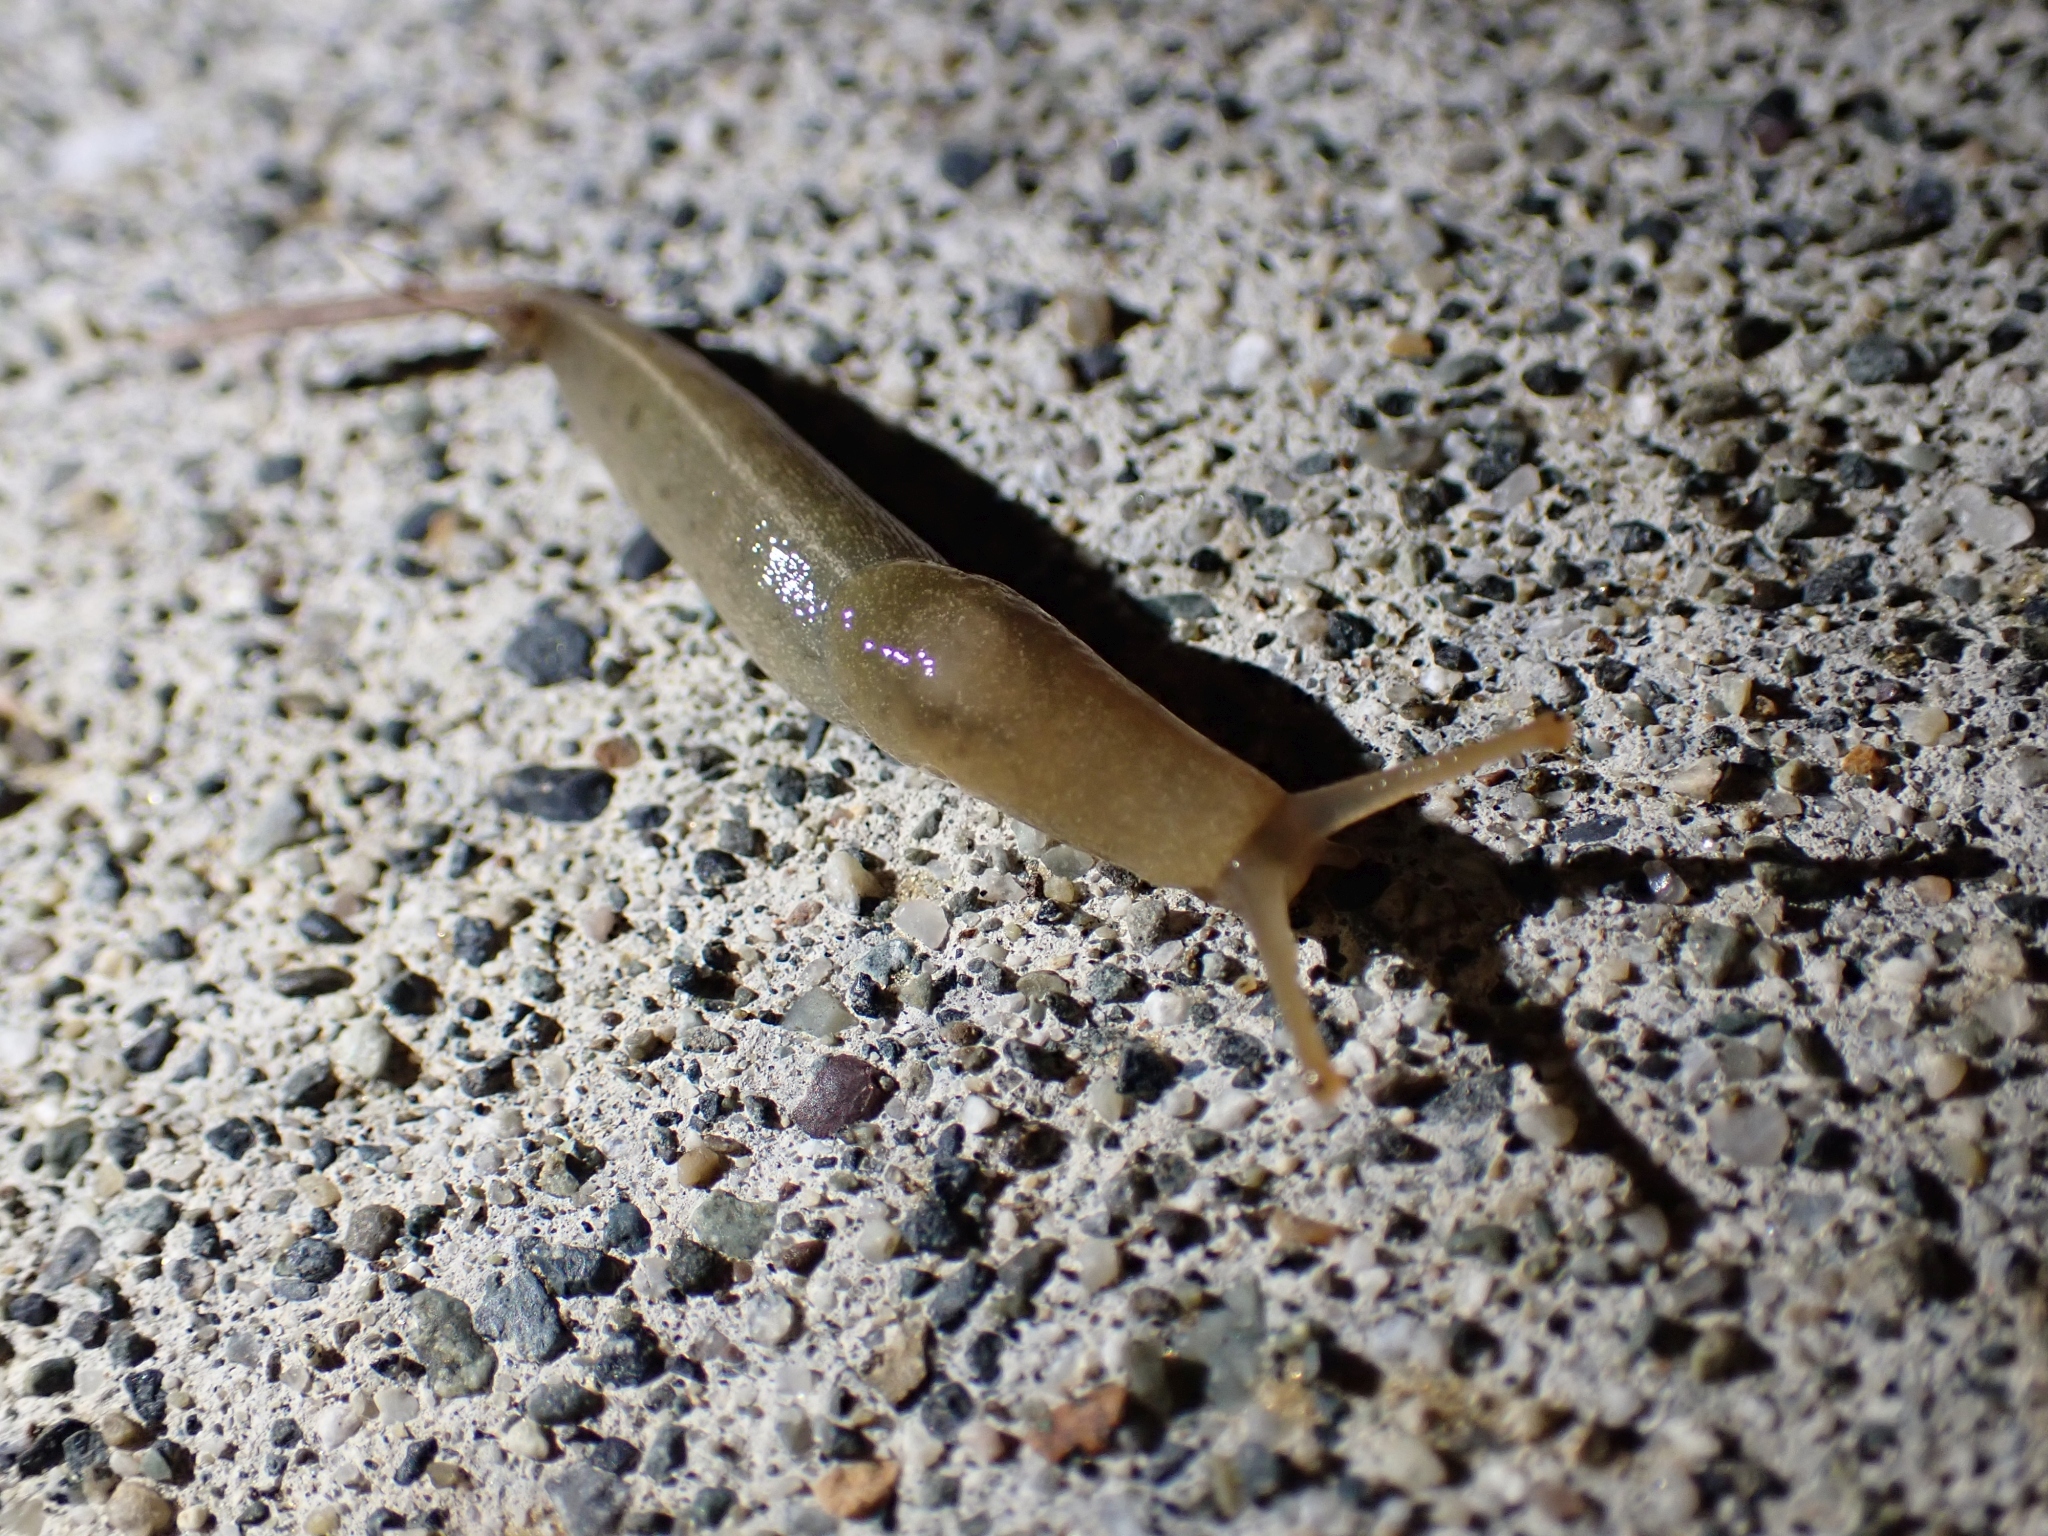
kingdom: Animalia
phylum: Mollusca
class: Gastropoda
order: Stylommatophora
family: Ariolimacidae
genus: Ariolimax
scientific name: Ariolimax columbianus
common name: Pacific banana slug
